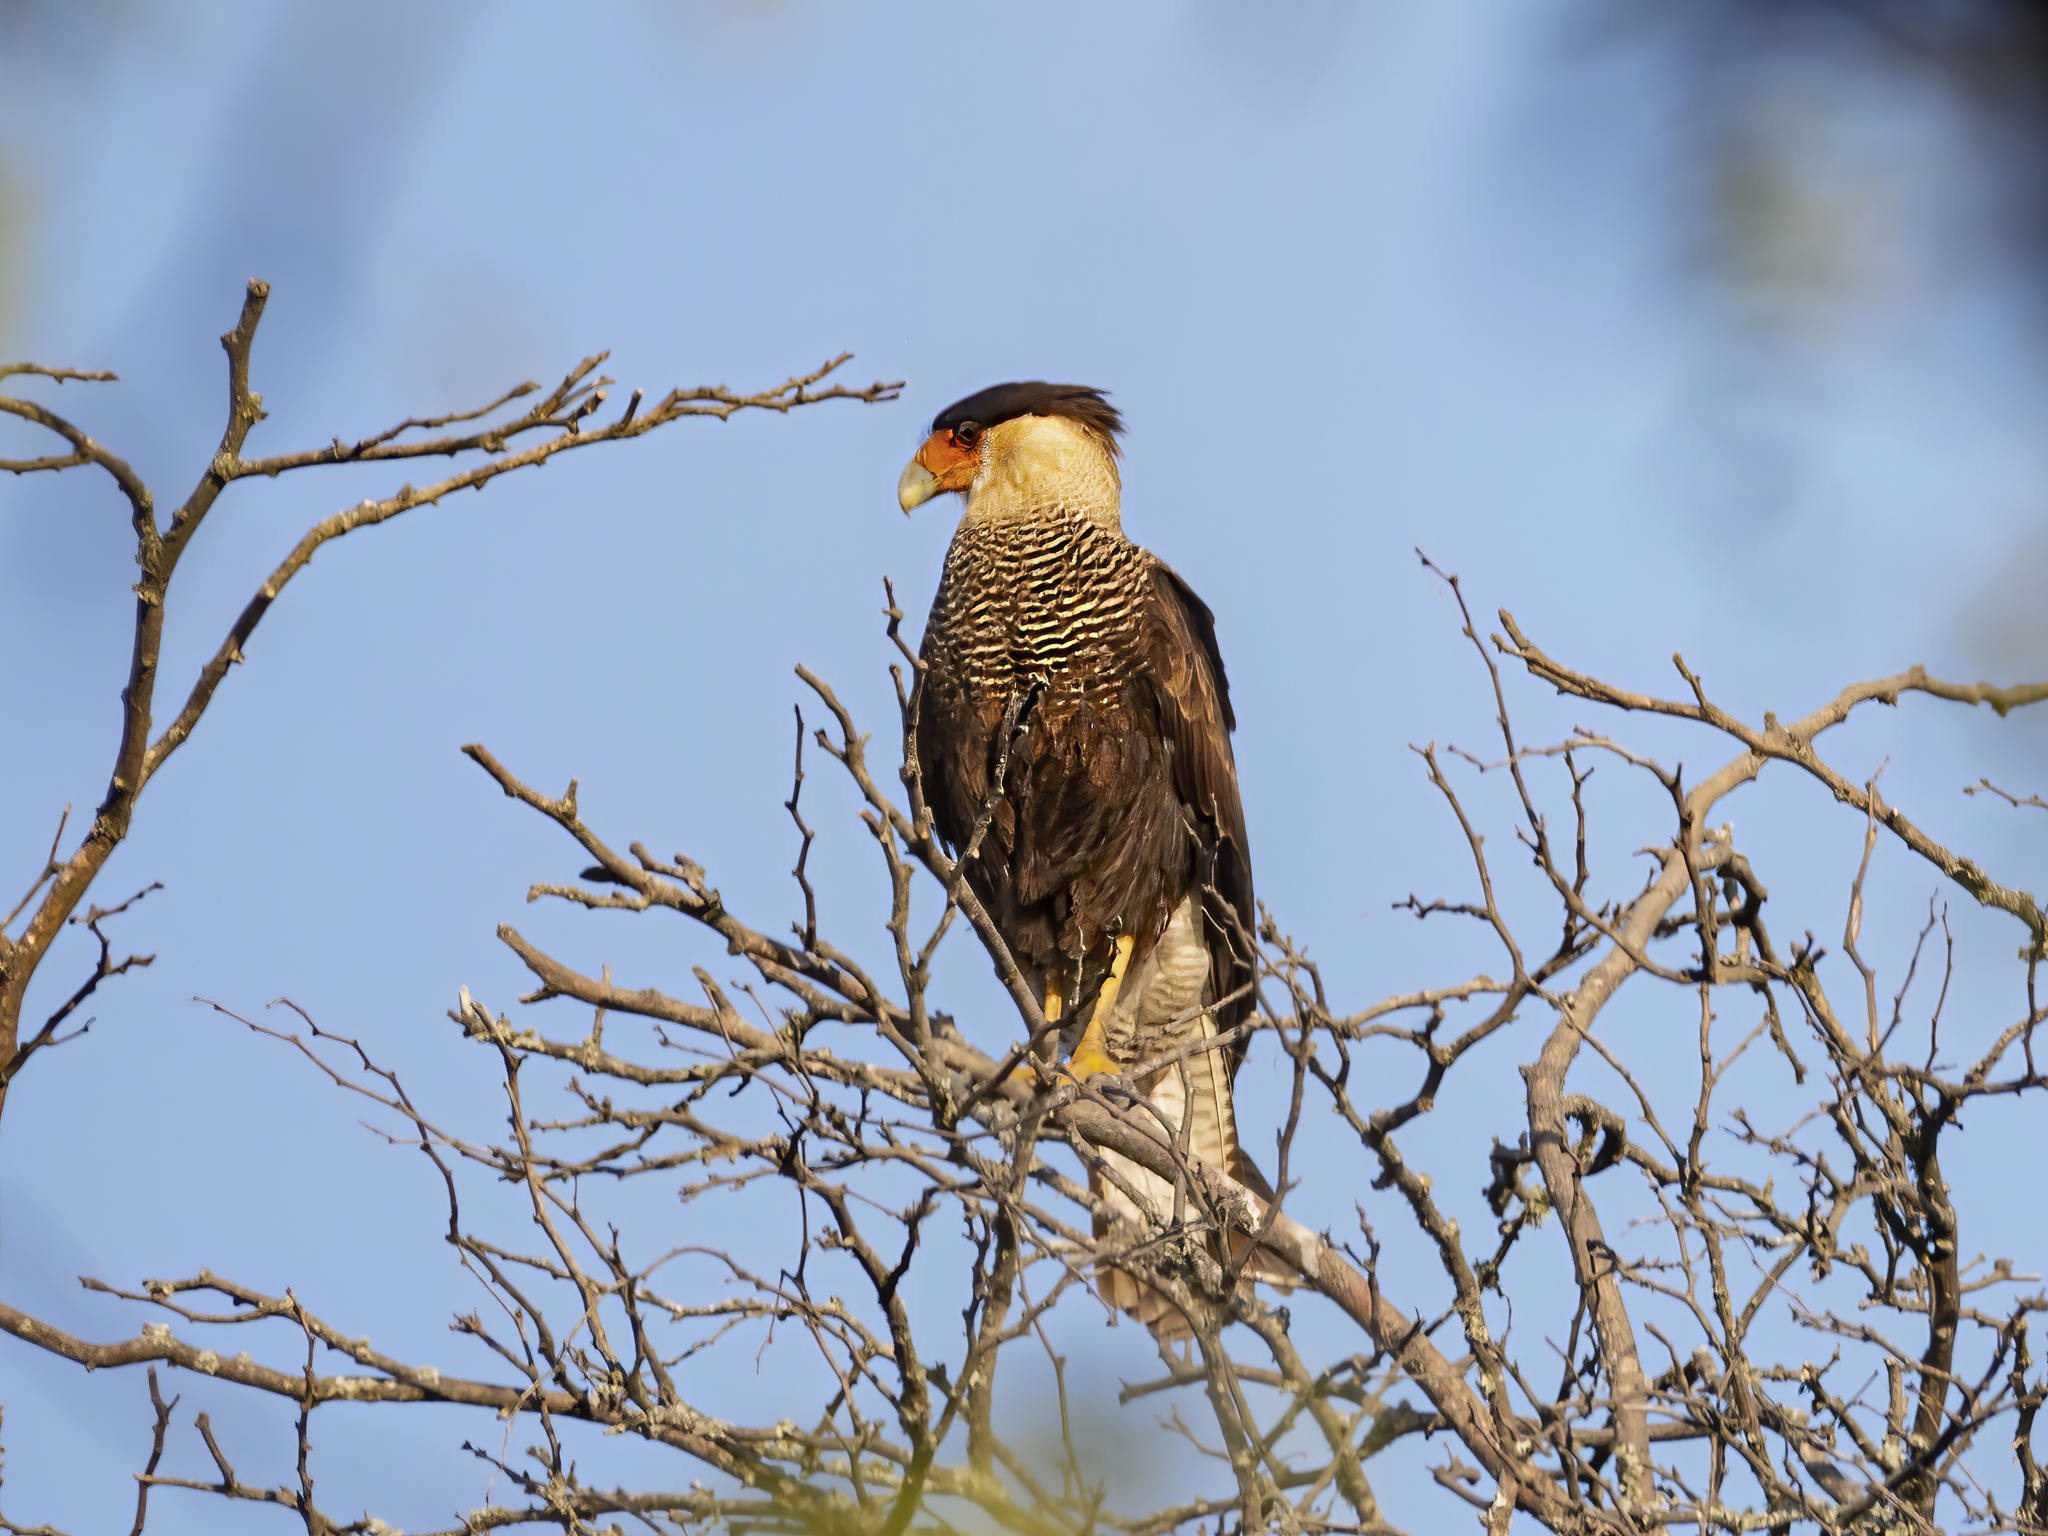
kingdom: Animalia
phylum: Chordata
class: Aves
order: Falconiformes
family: Falconidae
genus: Caracara
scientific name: Caracara plancus
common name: Southern caracara
